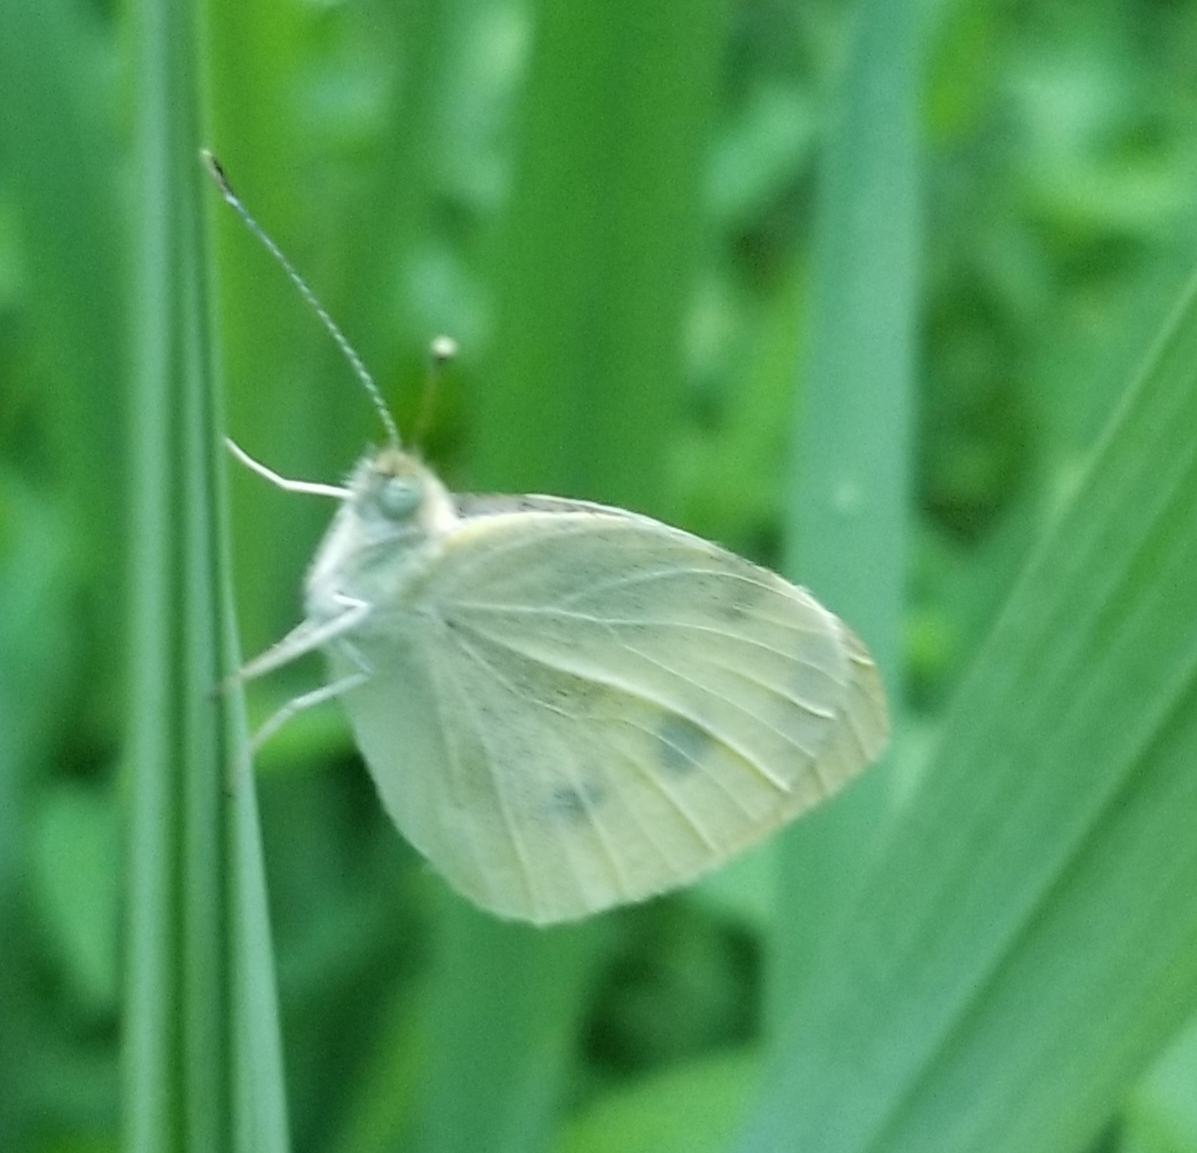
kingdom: Animalia
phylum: Arthropoda
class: Insecta
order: Lepidoptera
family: Pieridae
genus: Pieris
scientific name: Pieris rapae
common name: Small white
